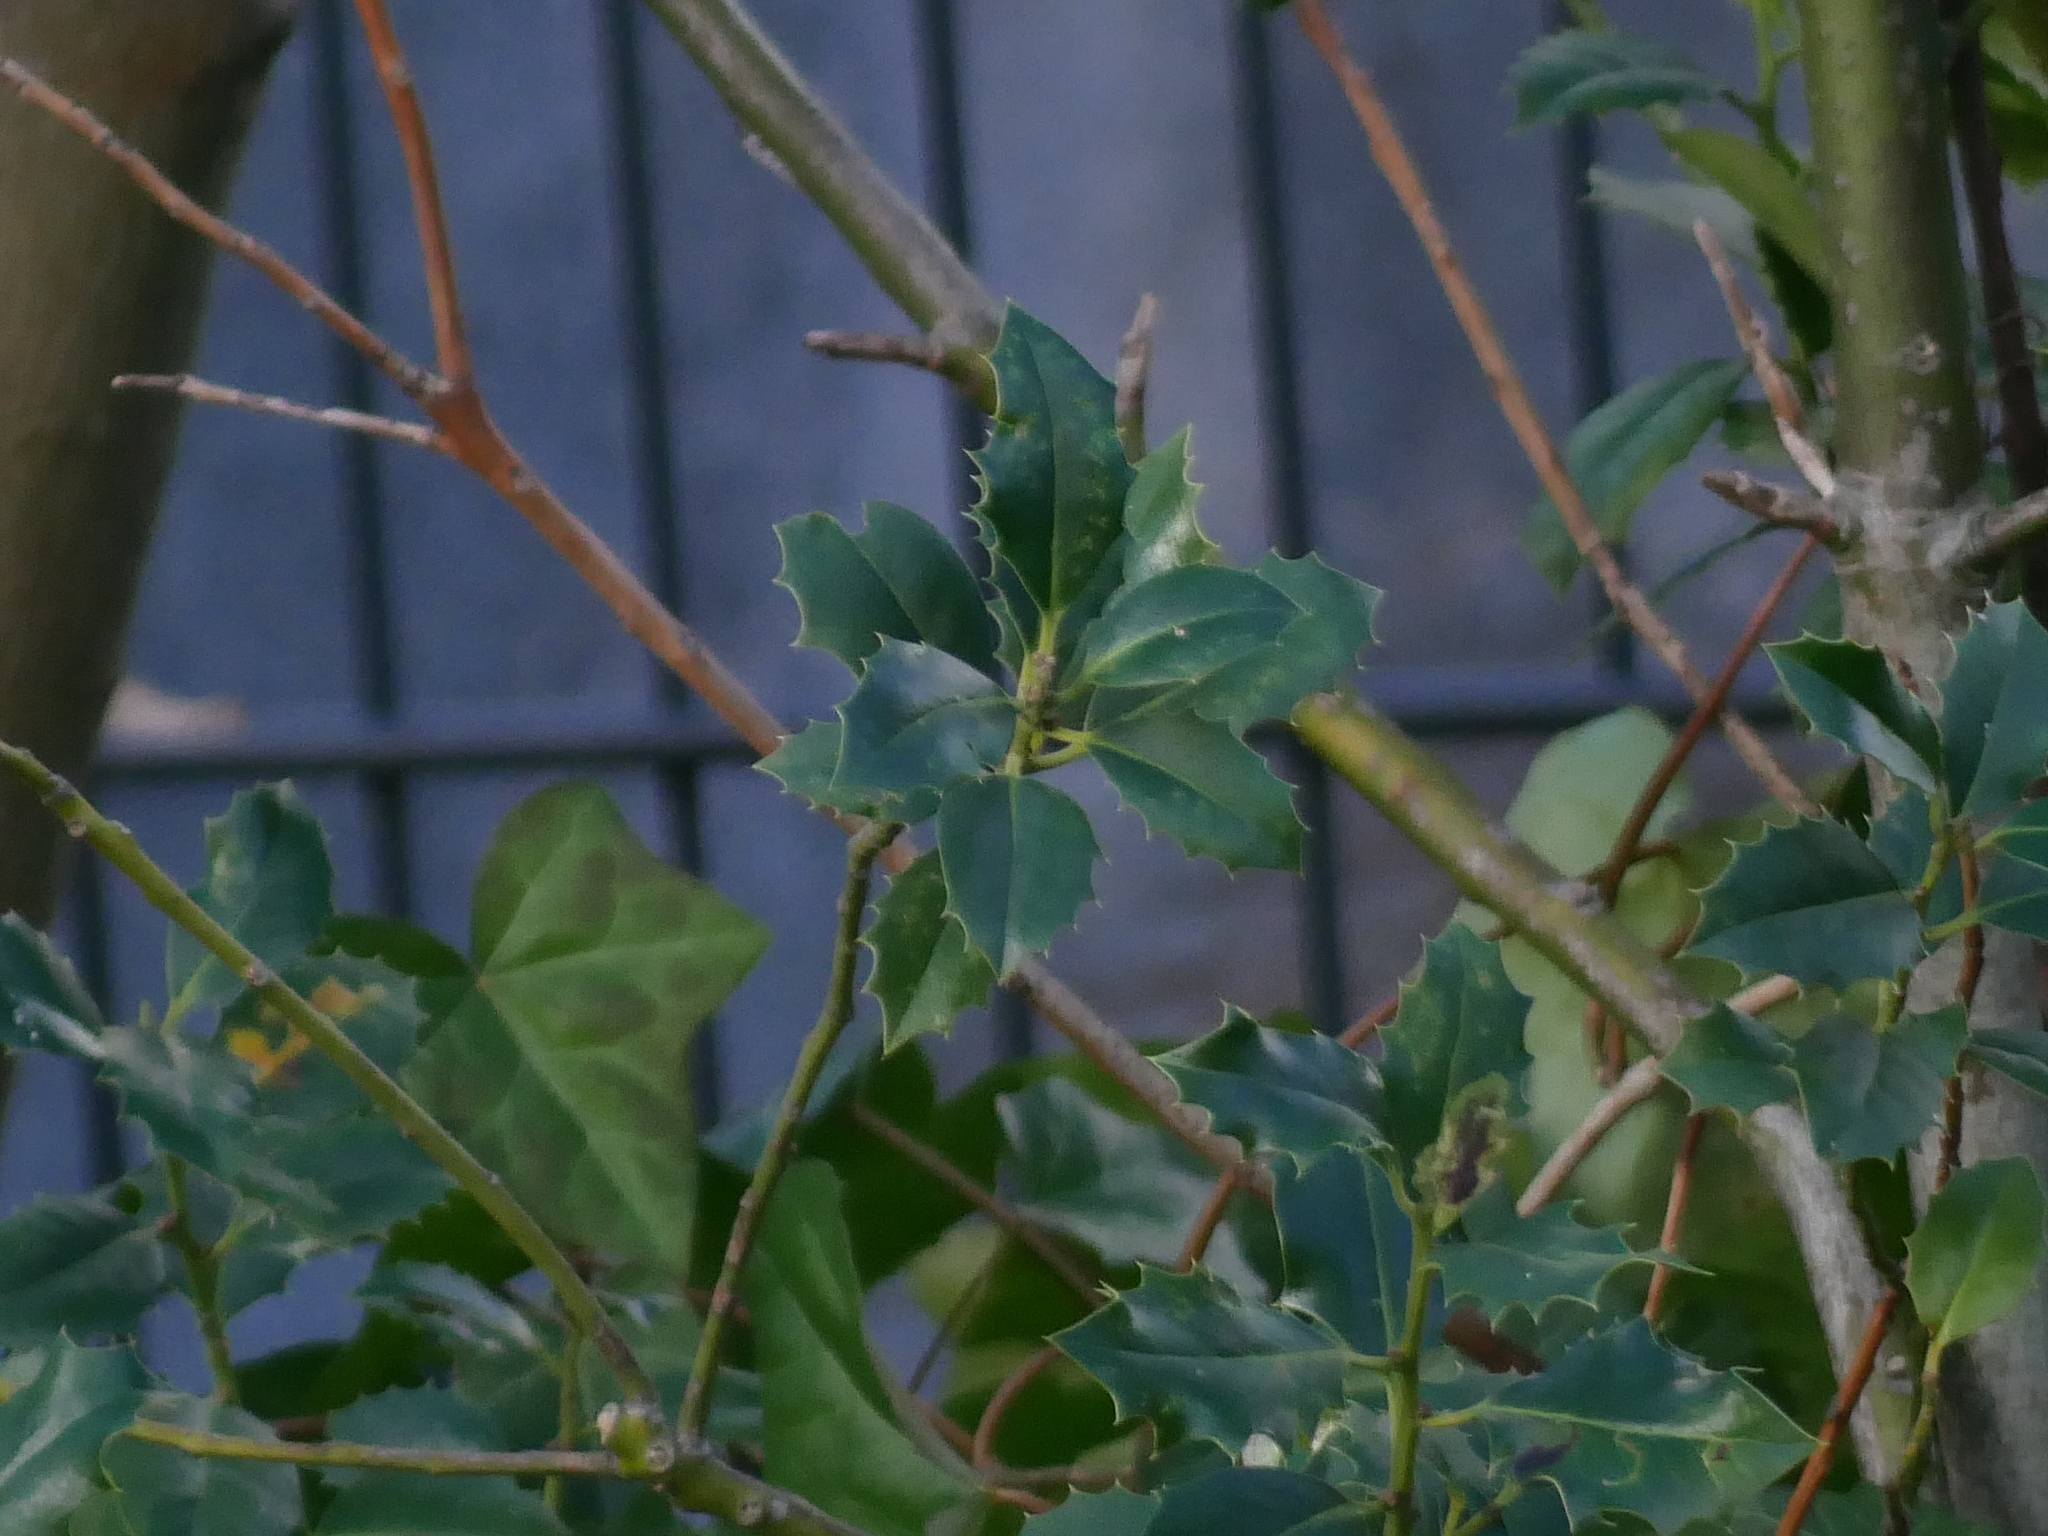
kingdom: Plantae
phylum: Tracheophyta
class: Magnoliopsida
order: Aquifoliales
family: Aquifoliaceae
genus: Ilex
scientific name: Ilex aquifolium
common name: English holly
